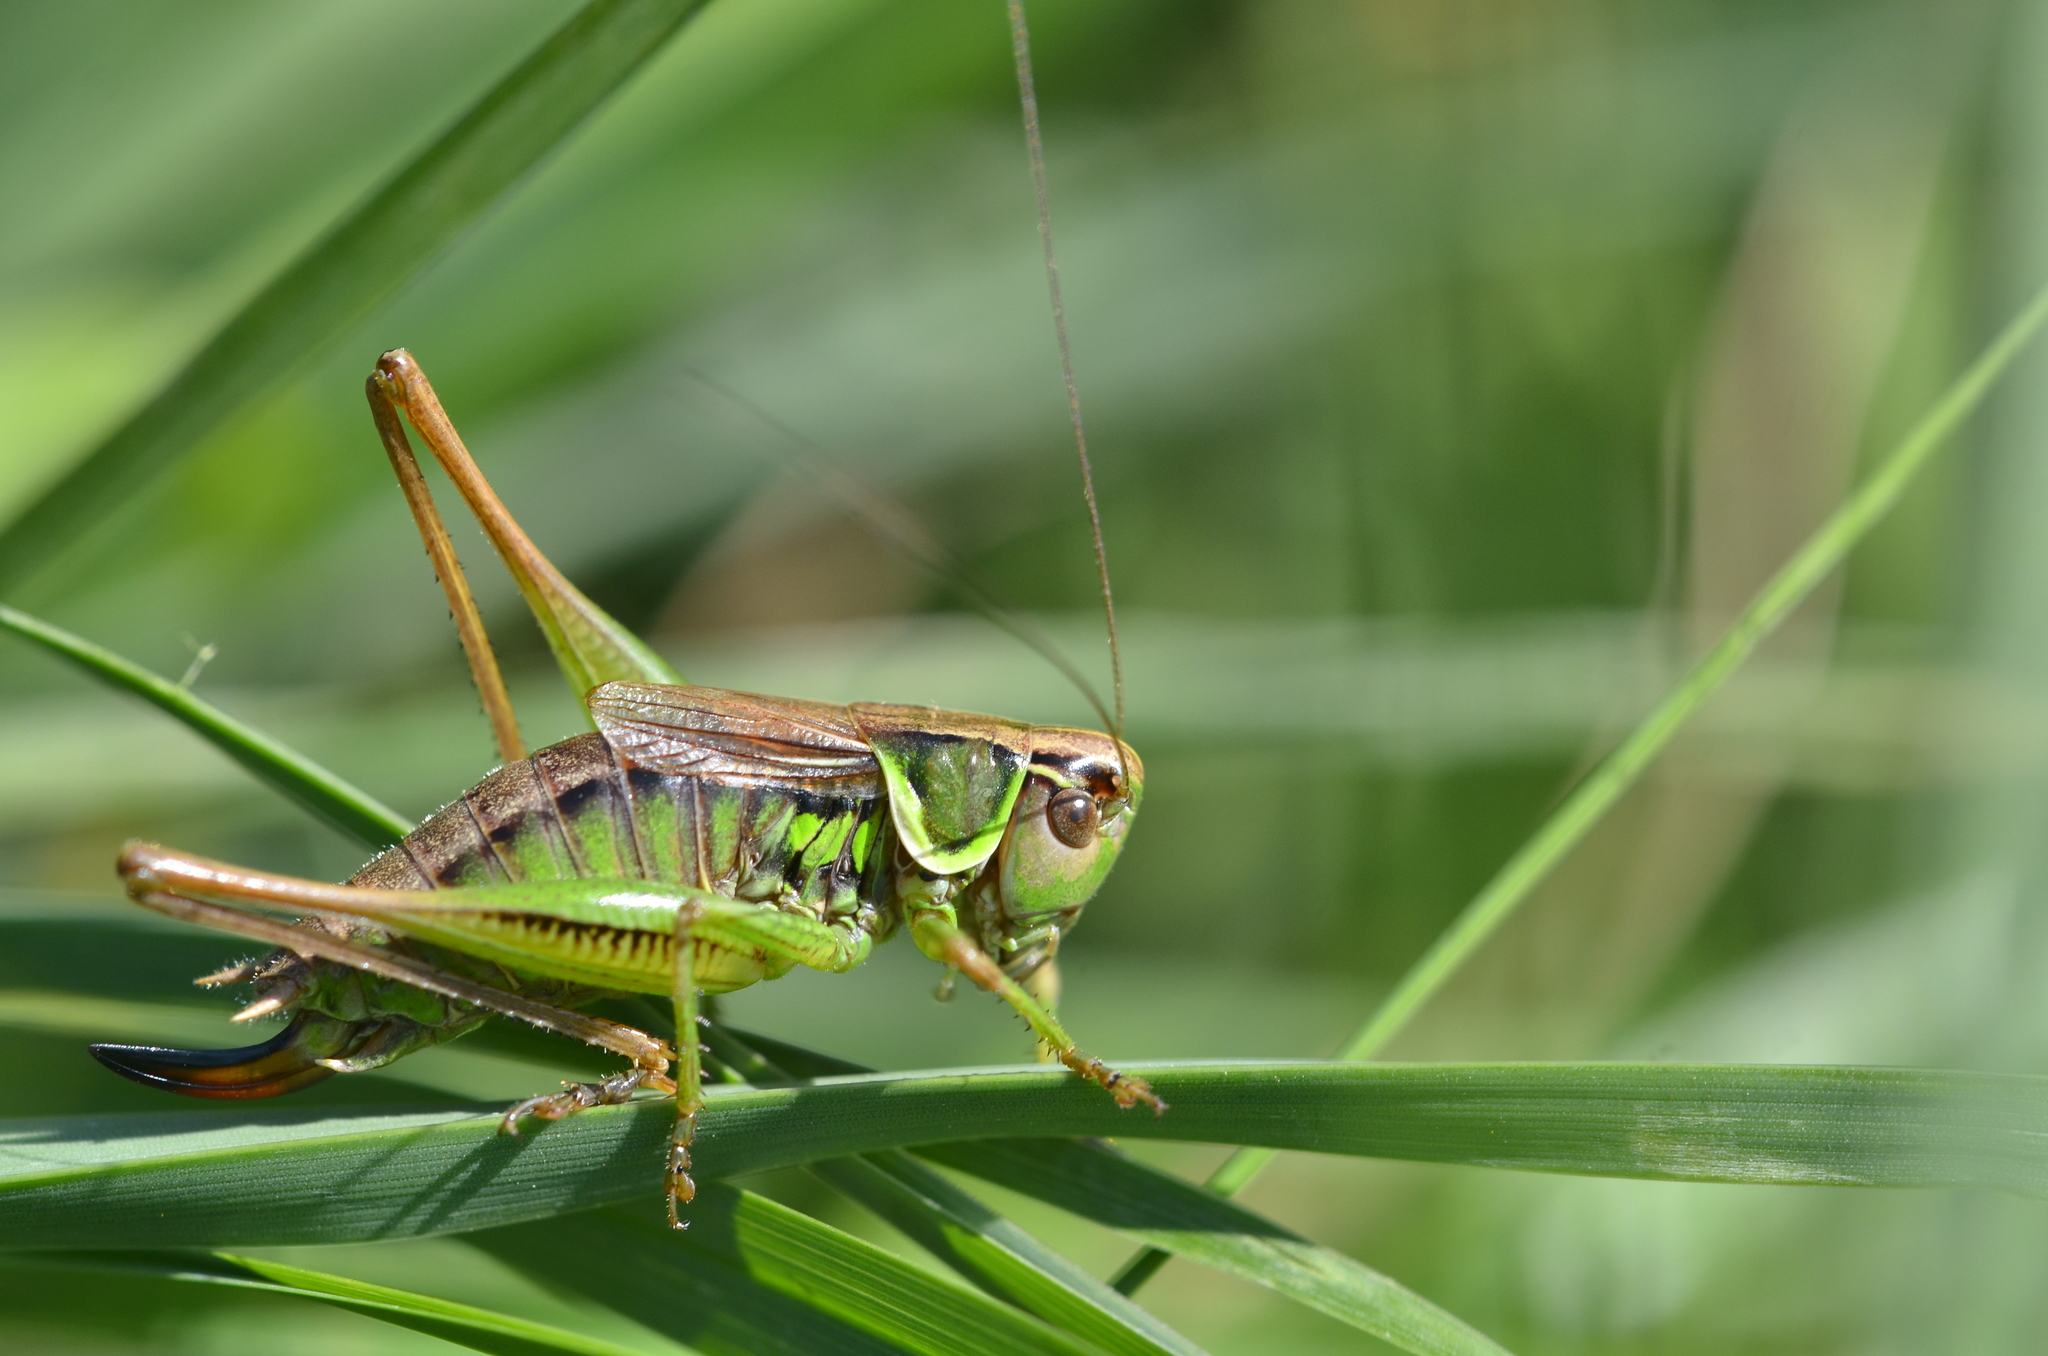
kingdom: Animalia
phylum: Arthropoda
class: Insecta
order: Orthoptera
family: Tettigoniidae
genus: Roeseliana
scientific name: Roeseliana roeselii
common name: Roesel's bush cricket
